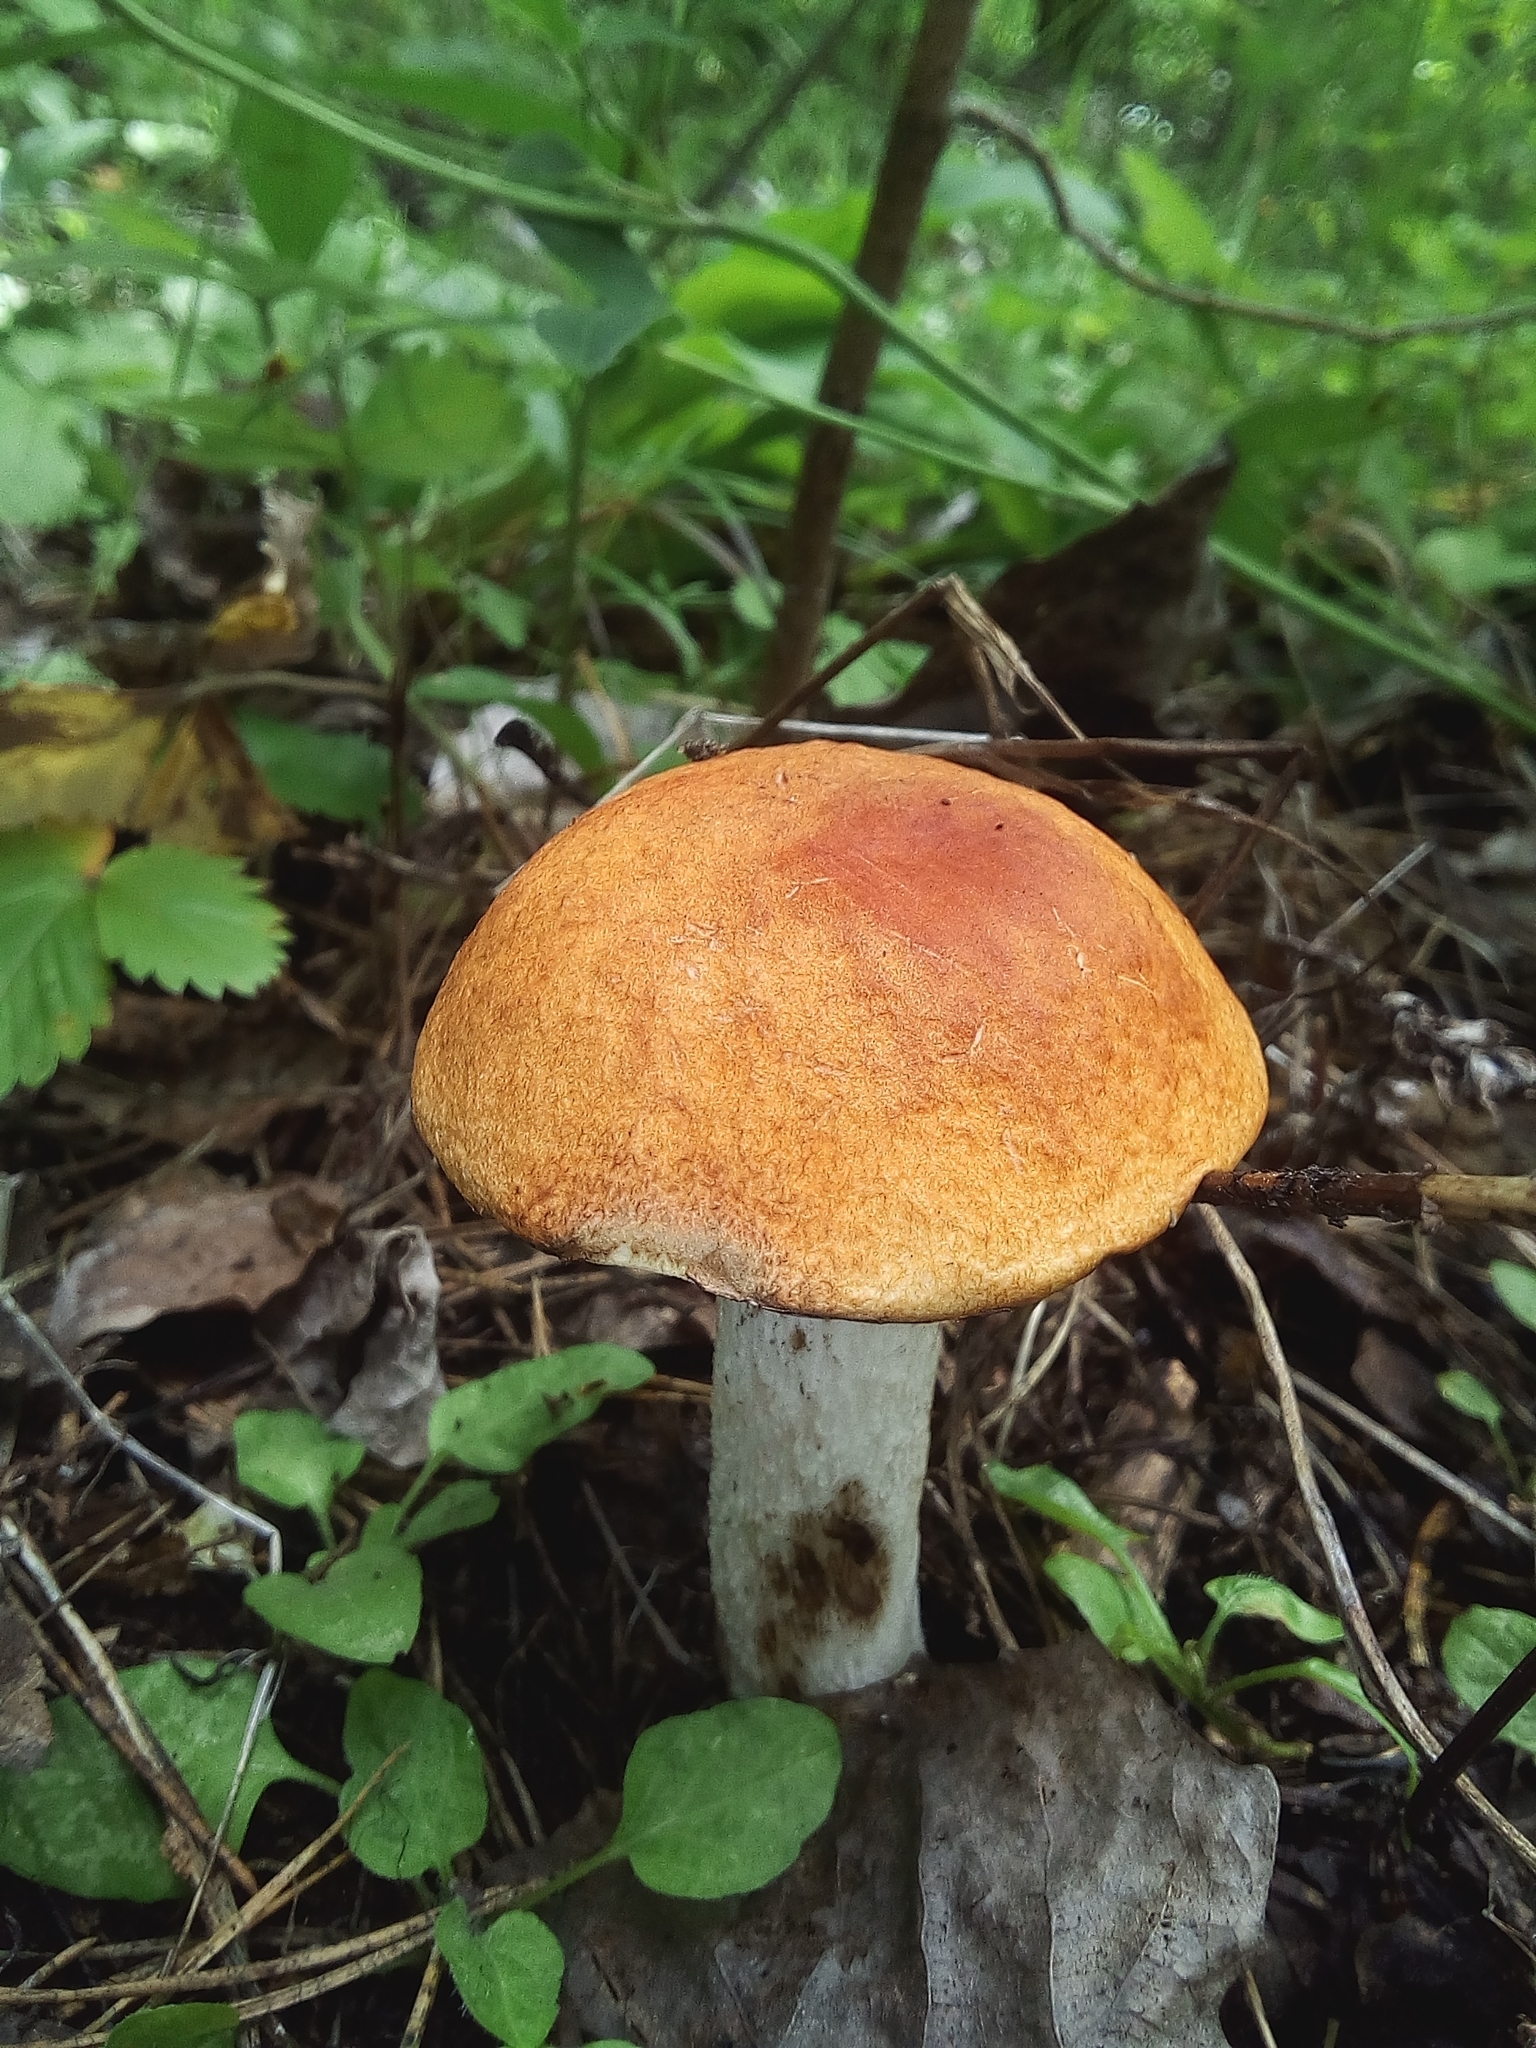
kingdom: Fungi
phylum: Basidiomycota
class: Agaricomycetes
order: Boletales
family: Boletaceae
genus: Leccinum
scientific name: Leccinum albostipitatum
